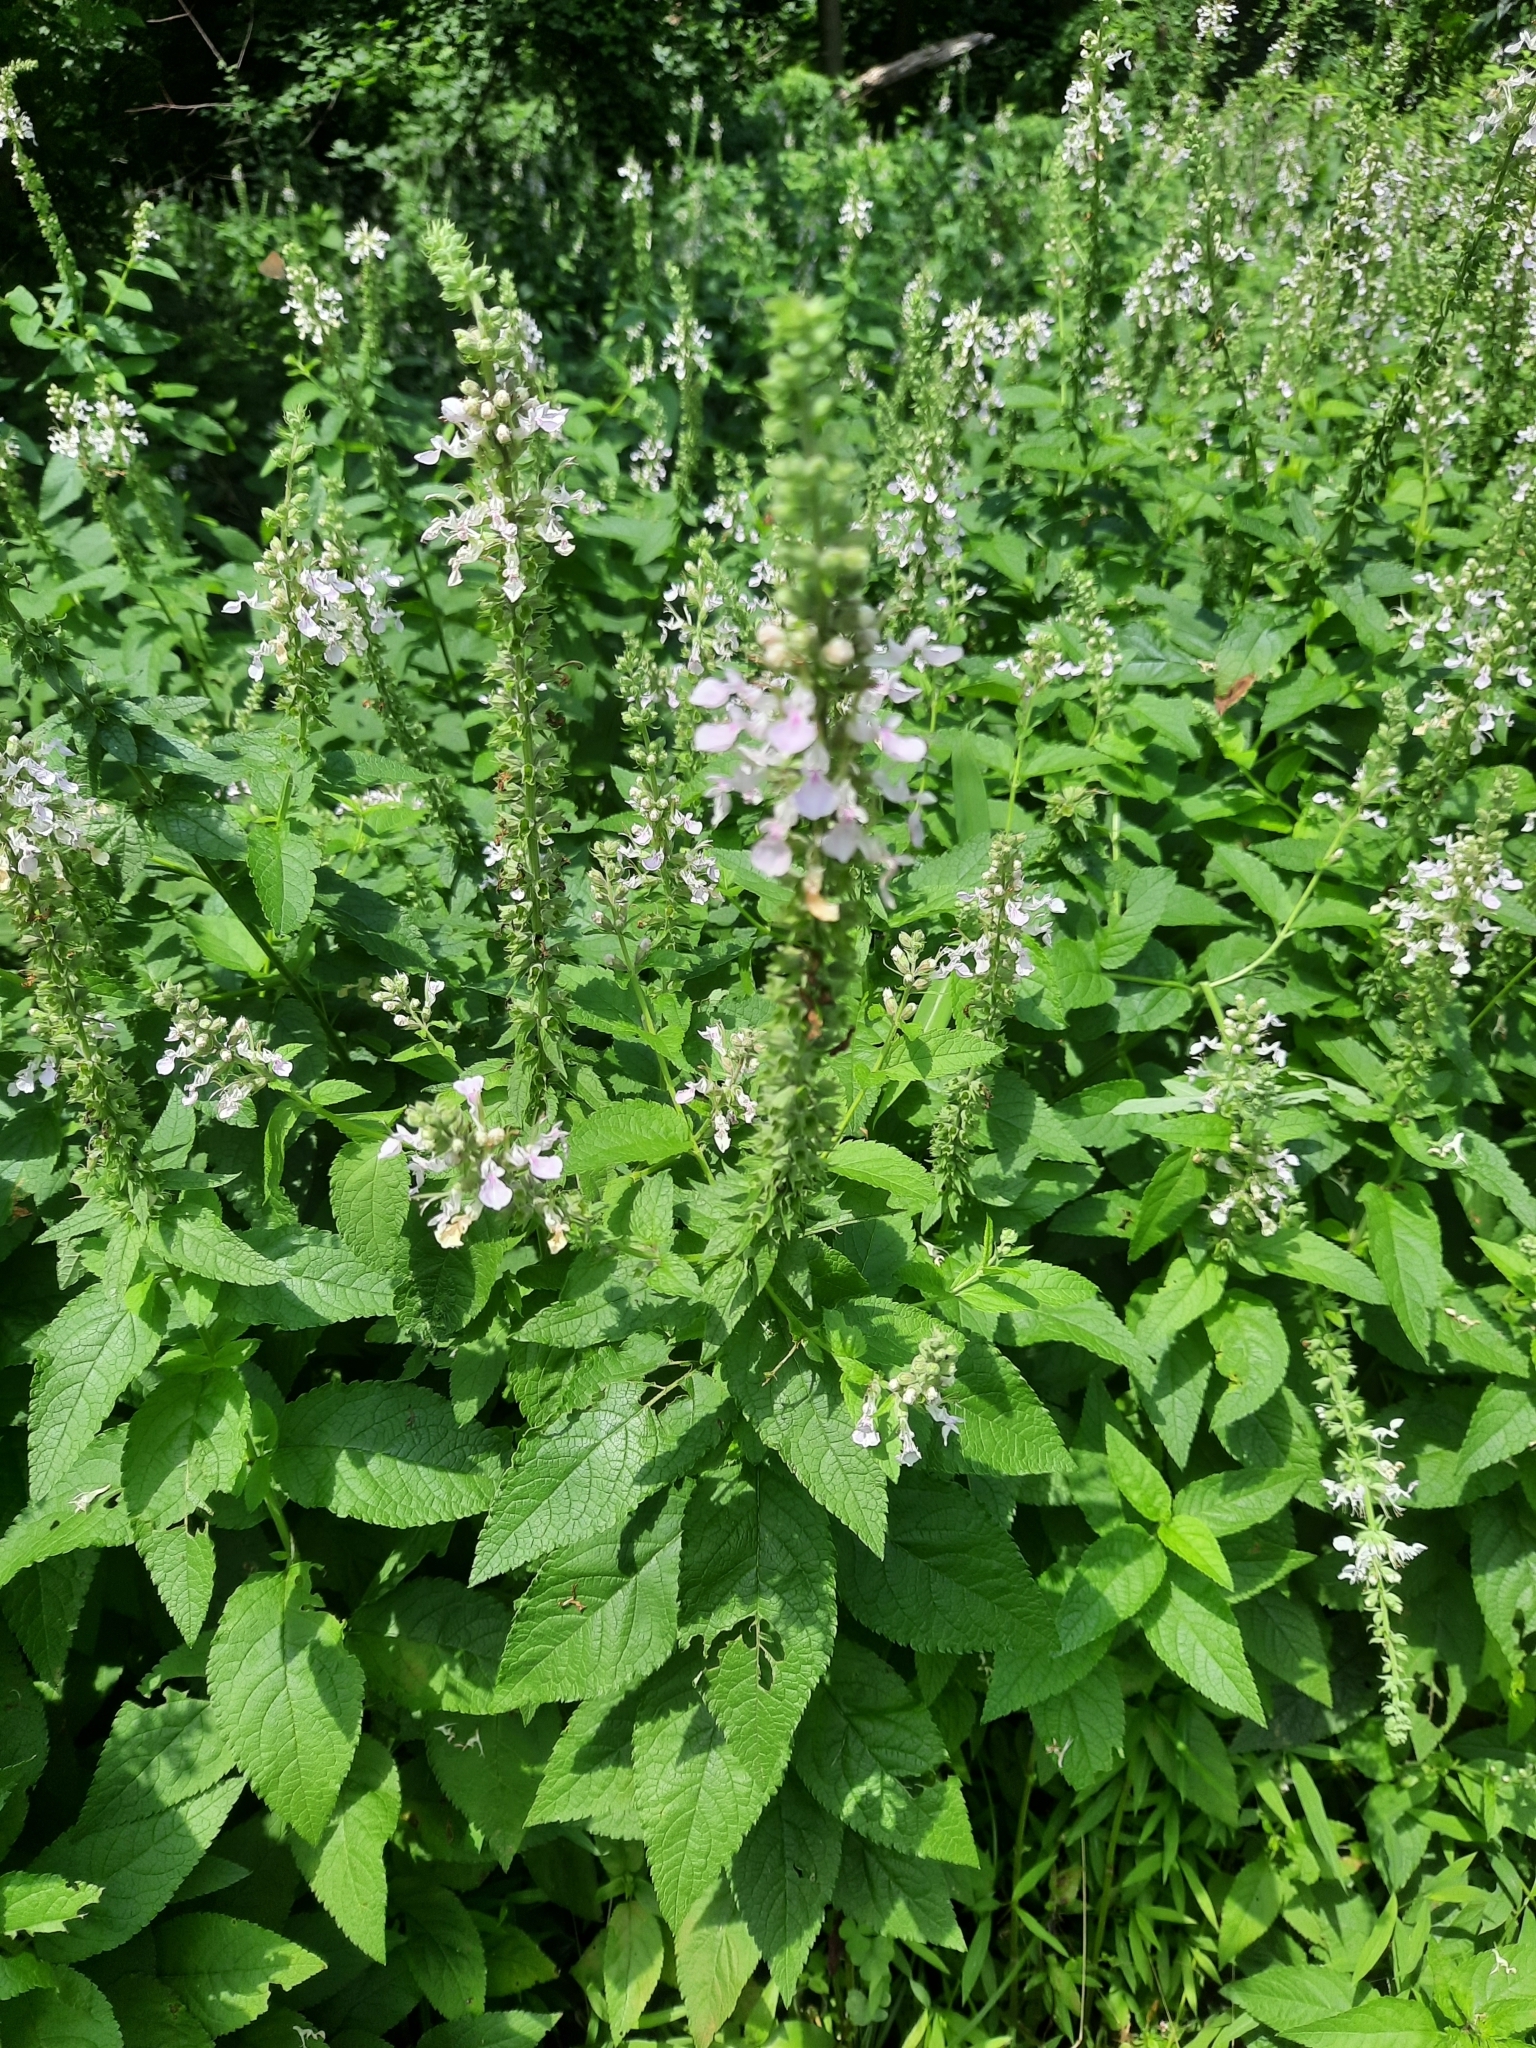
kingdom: Plantae
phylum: Tracheophyta
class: Magnoliopsida
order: Lamiales
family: Lamiaceae
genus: Teucrium
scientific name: Teucrium canadense
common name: American germander
